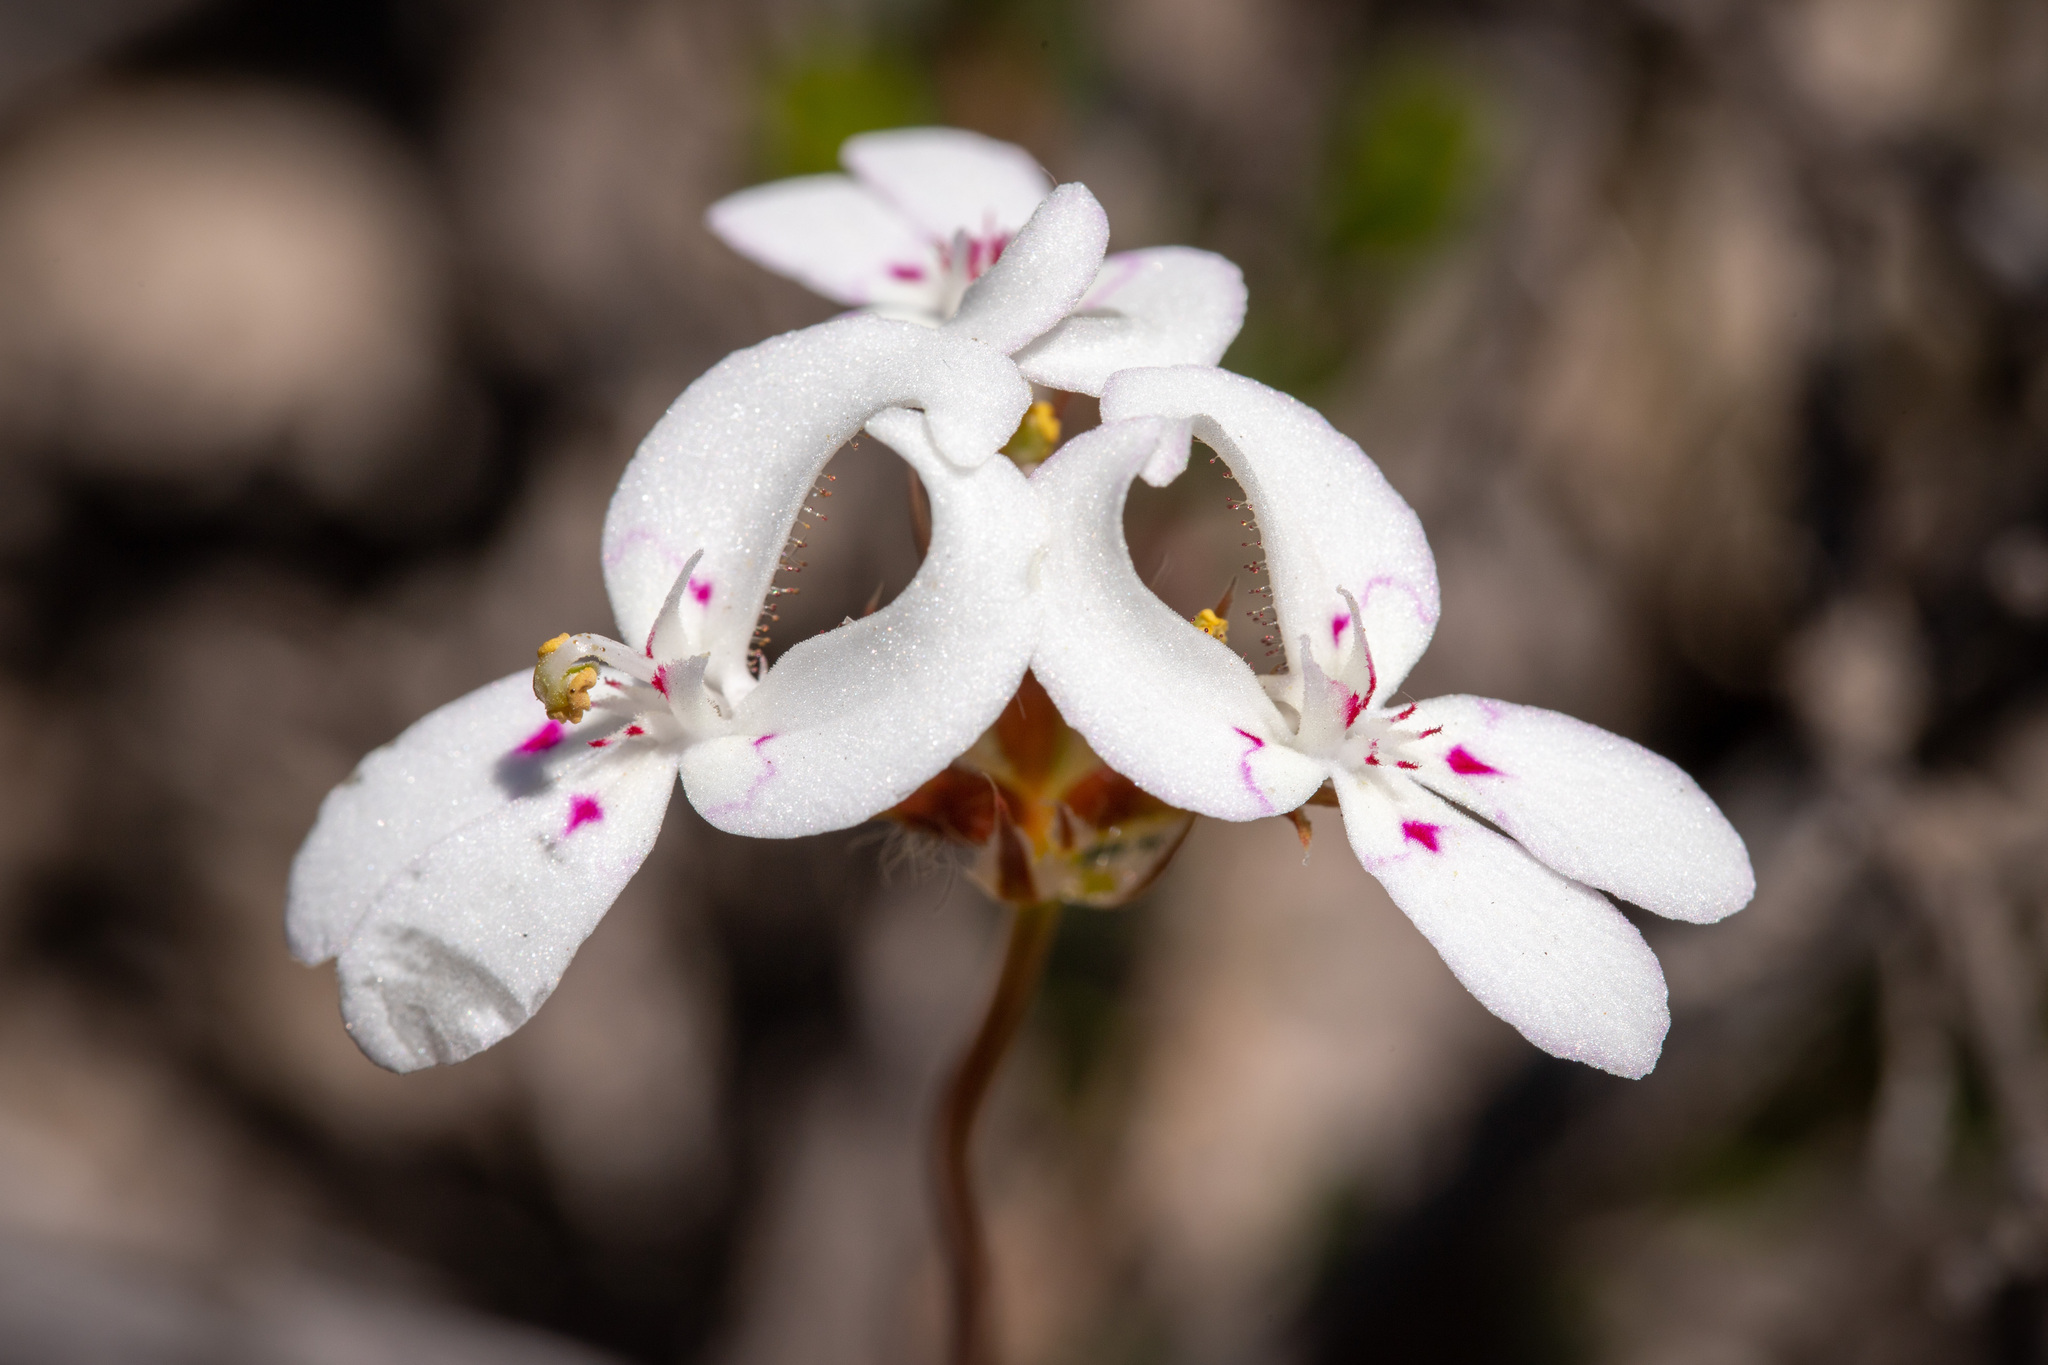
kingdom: Plantae
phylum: Tracheophyta
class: Magnoliopsida
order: Asterales
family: Stylidiaceae
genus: Stylidium
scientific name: Stylidium crossocephalum
